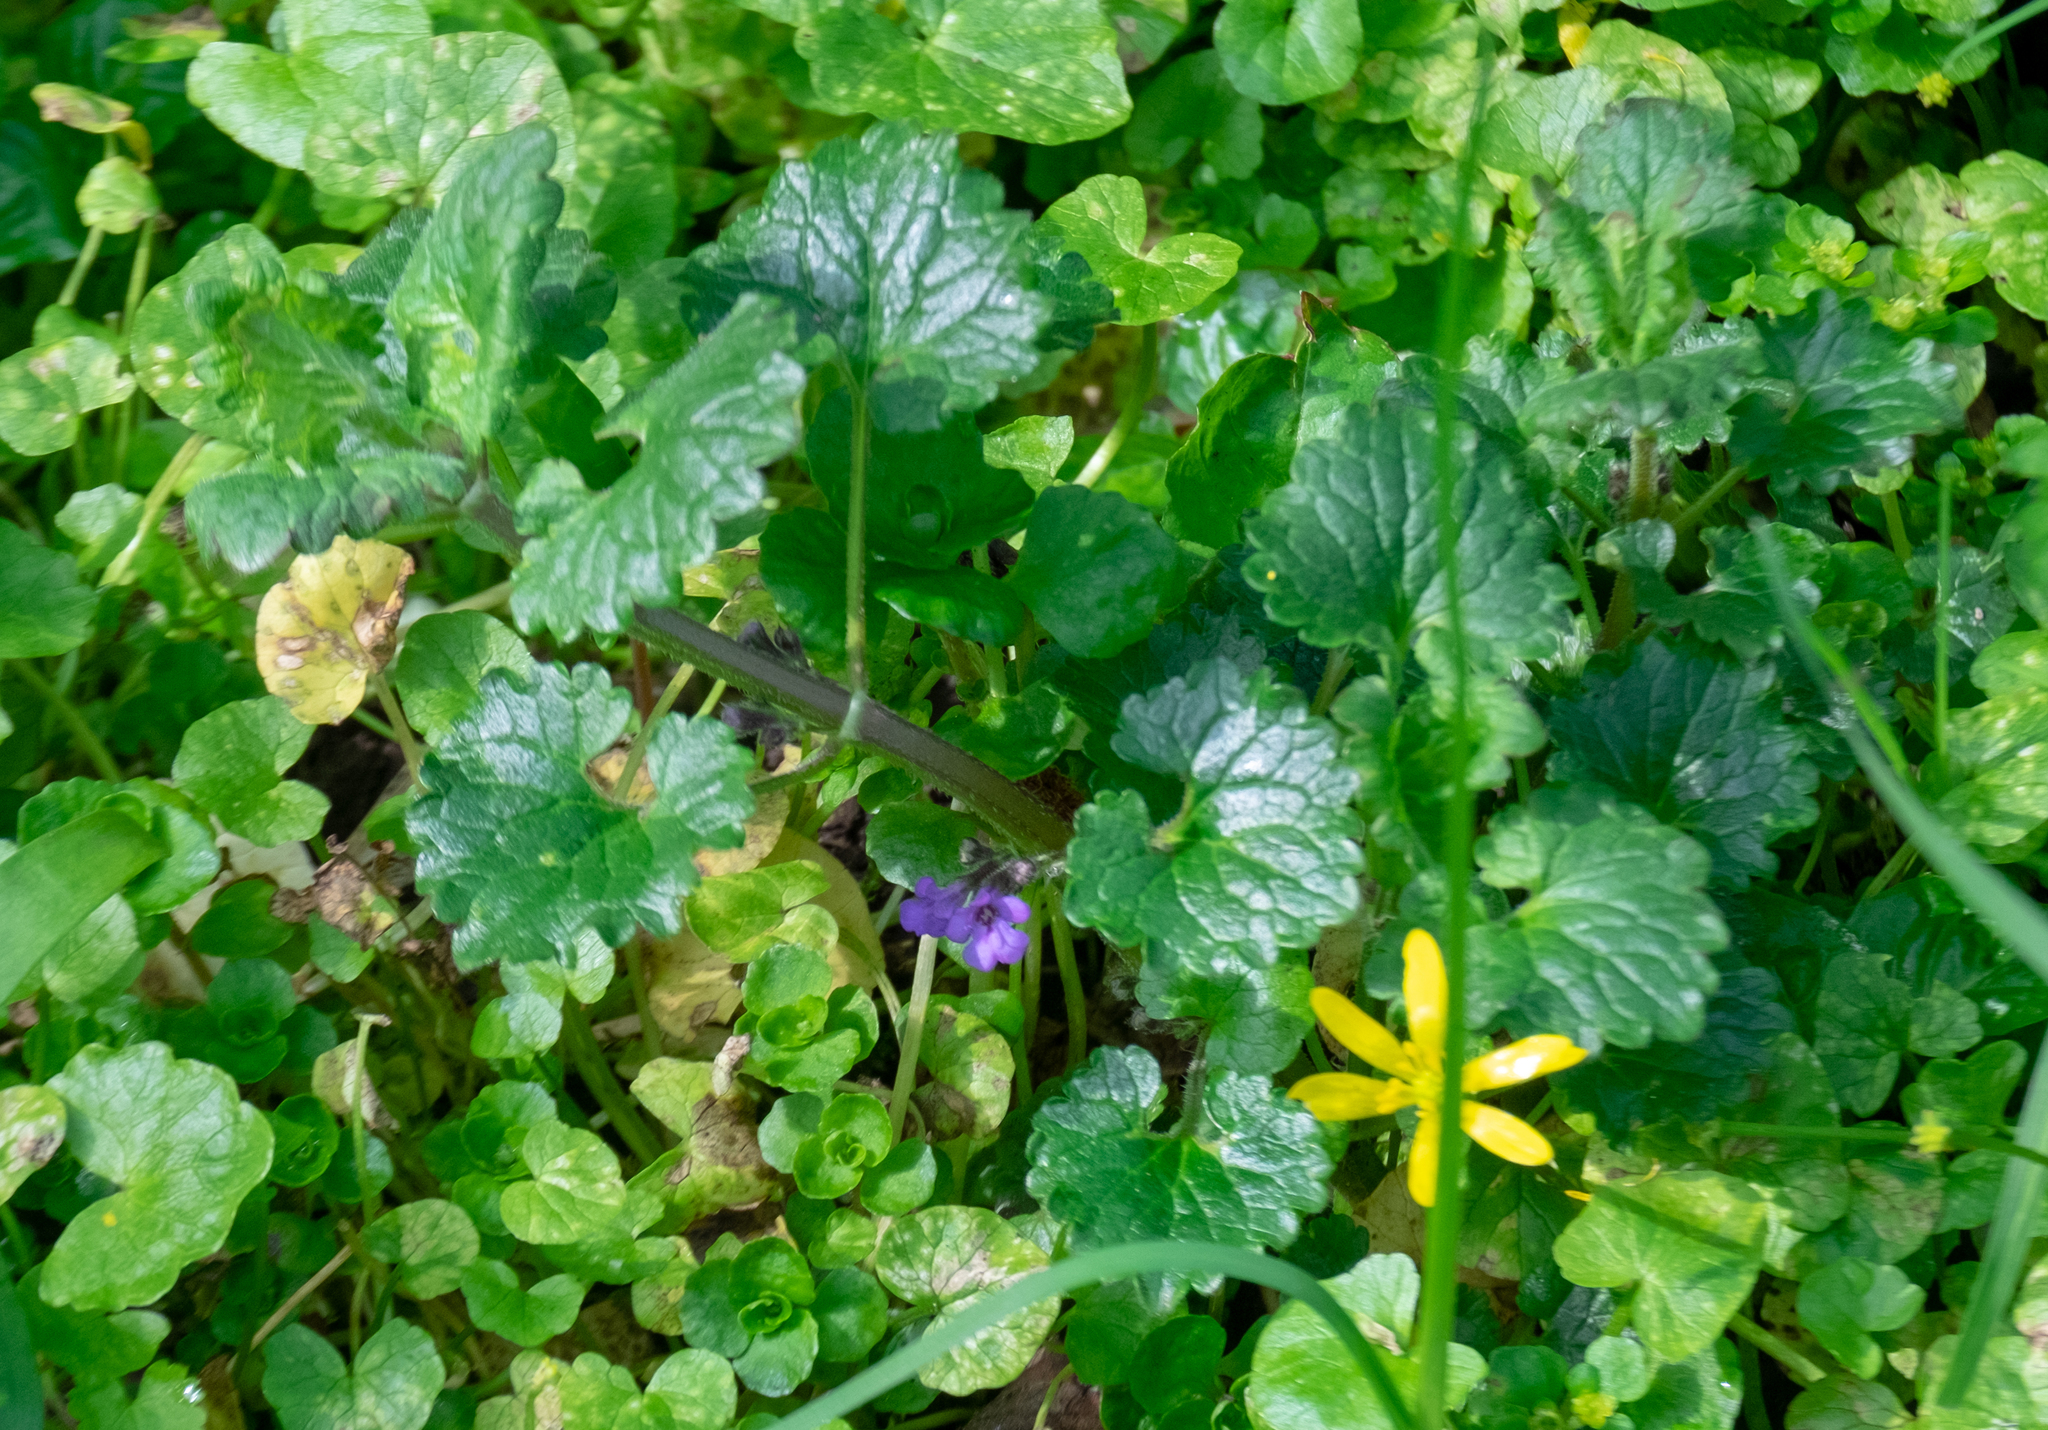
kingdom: Plantae
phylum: Tracheophyta
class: Magnoliopsida
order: Lamiales
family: Lamiaceae
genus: Glechoma
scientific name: Glechoma hederacea
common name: Ground ivy
